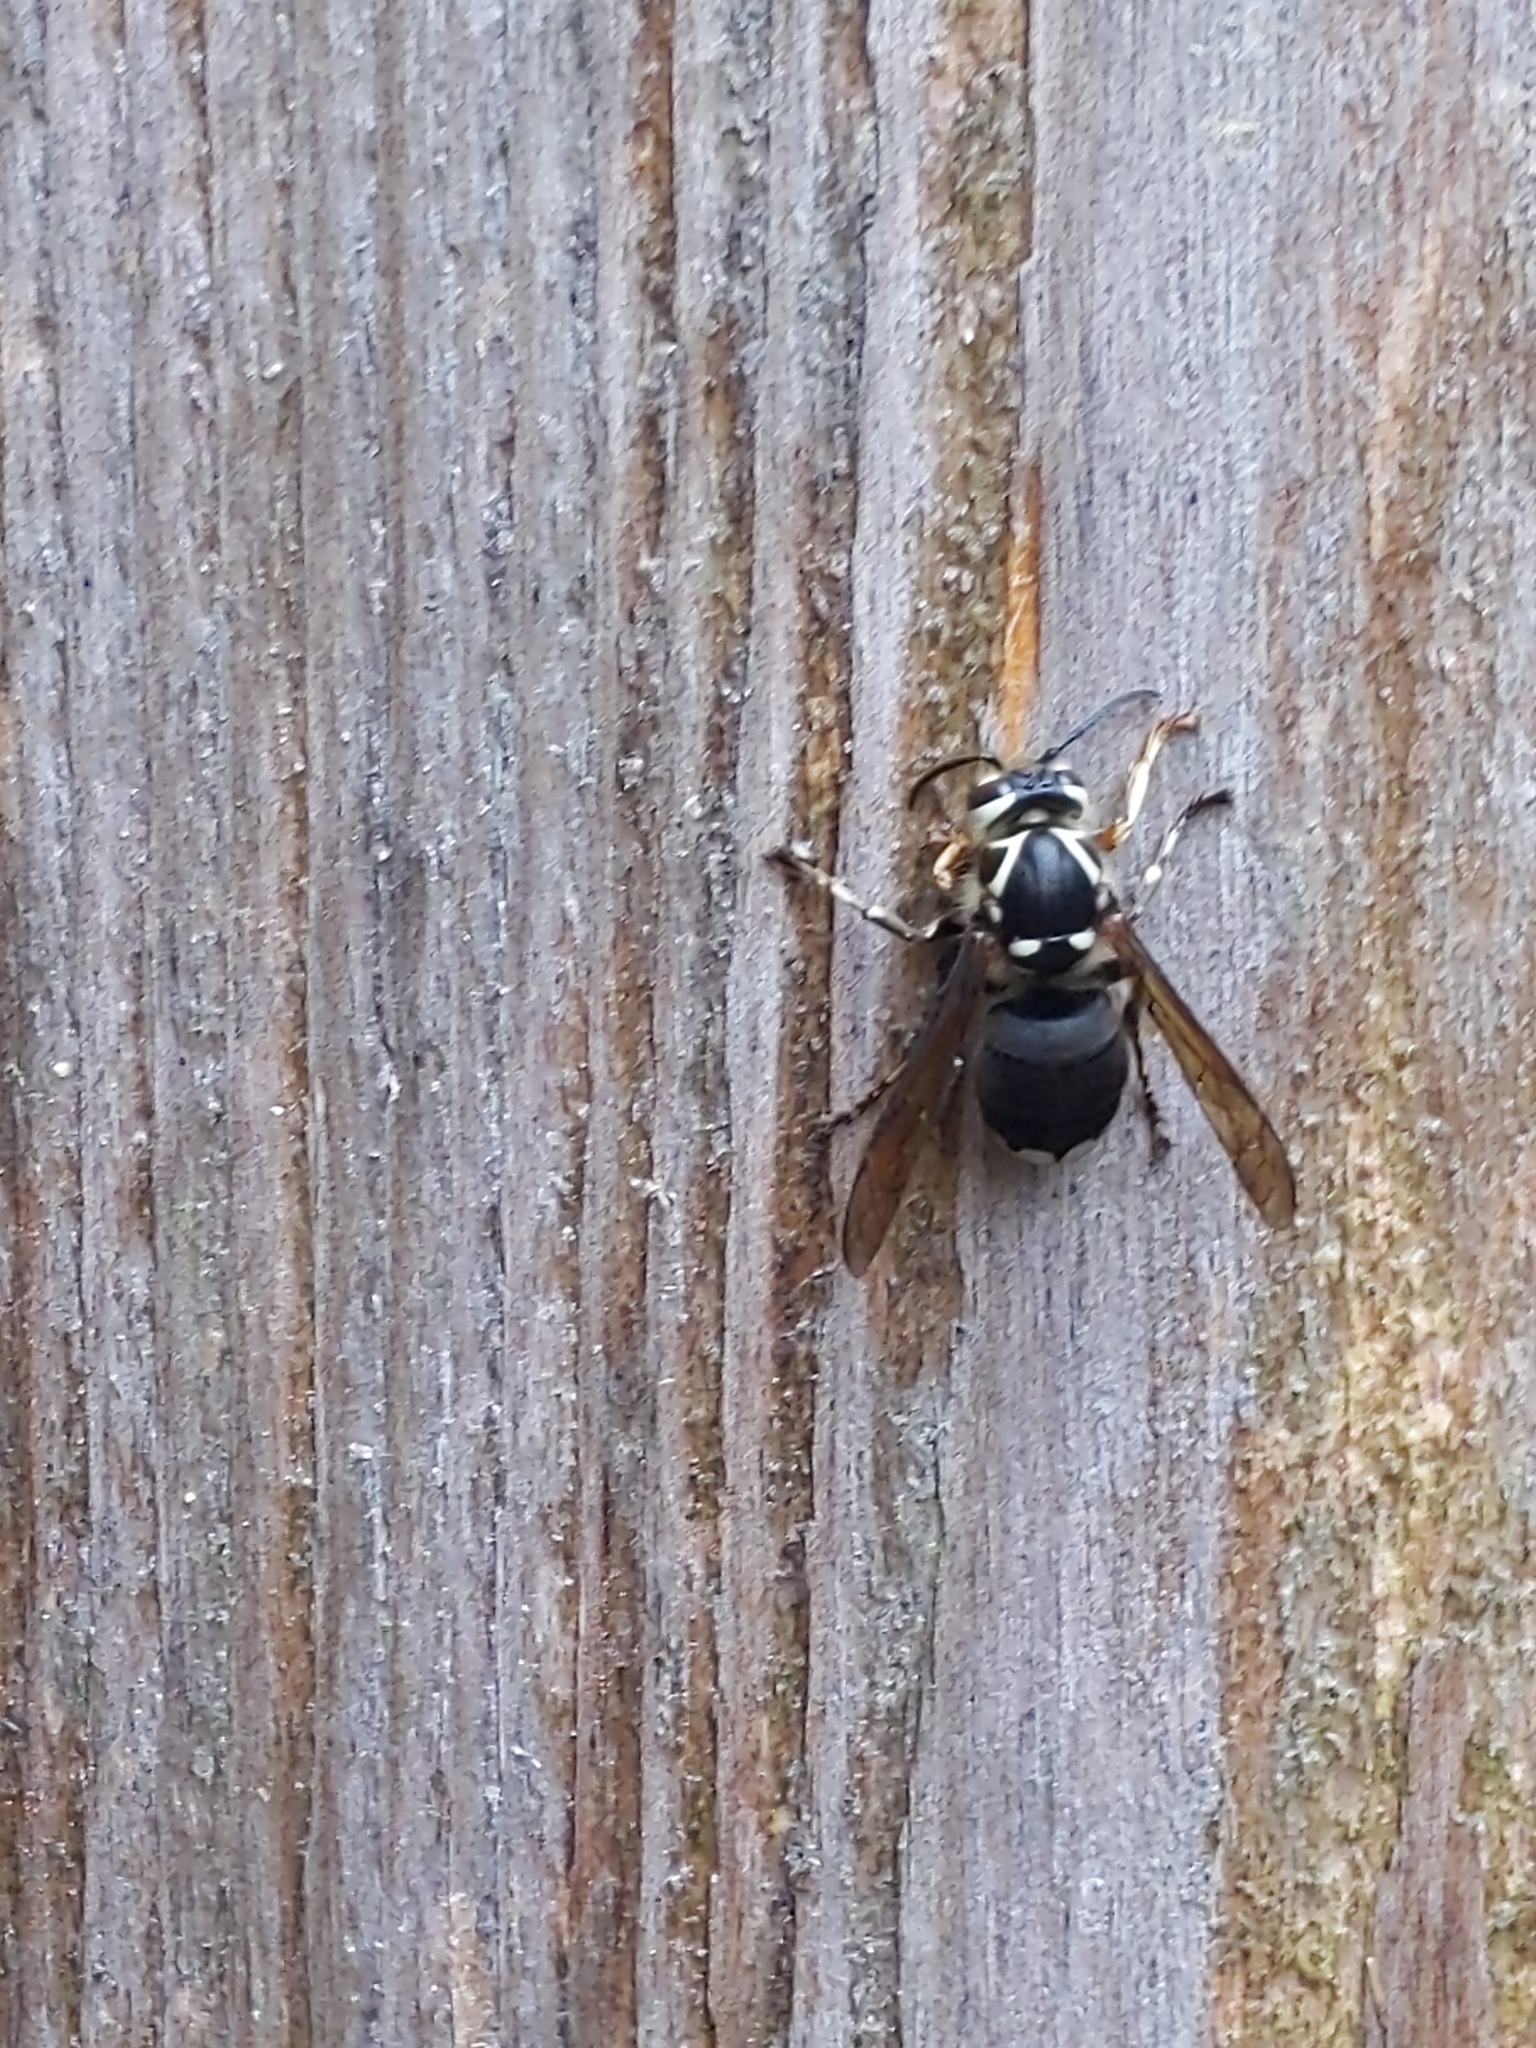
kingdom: Animalia
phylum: Arthropoda
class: Insecta
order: Hymenoptera
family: Vespidae
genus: Dolichovespula
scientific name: Dolichovespula maculata
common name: Bald-faced hornet
